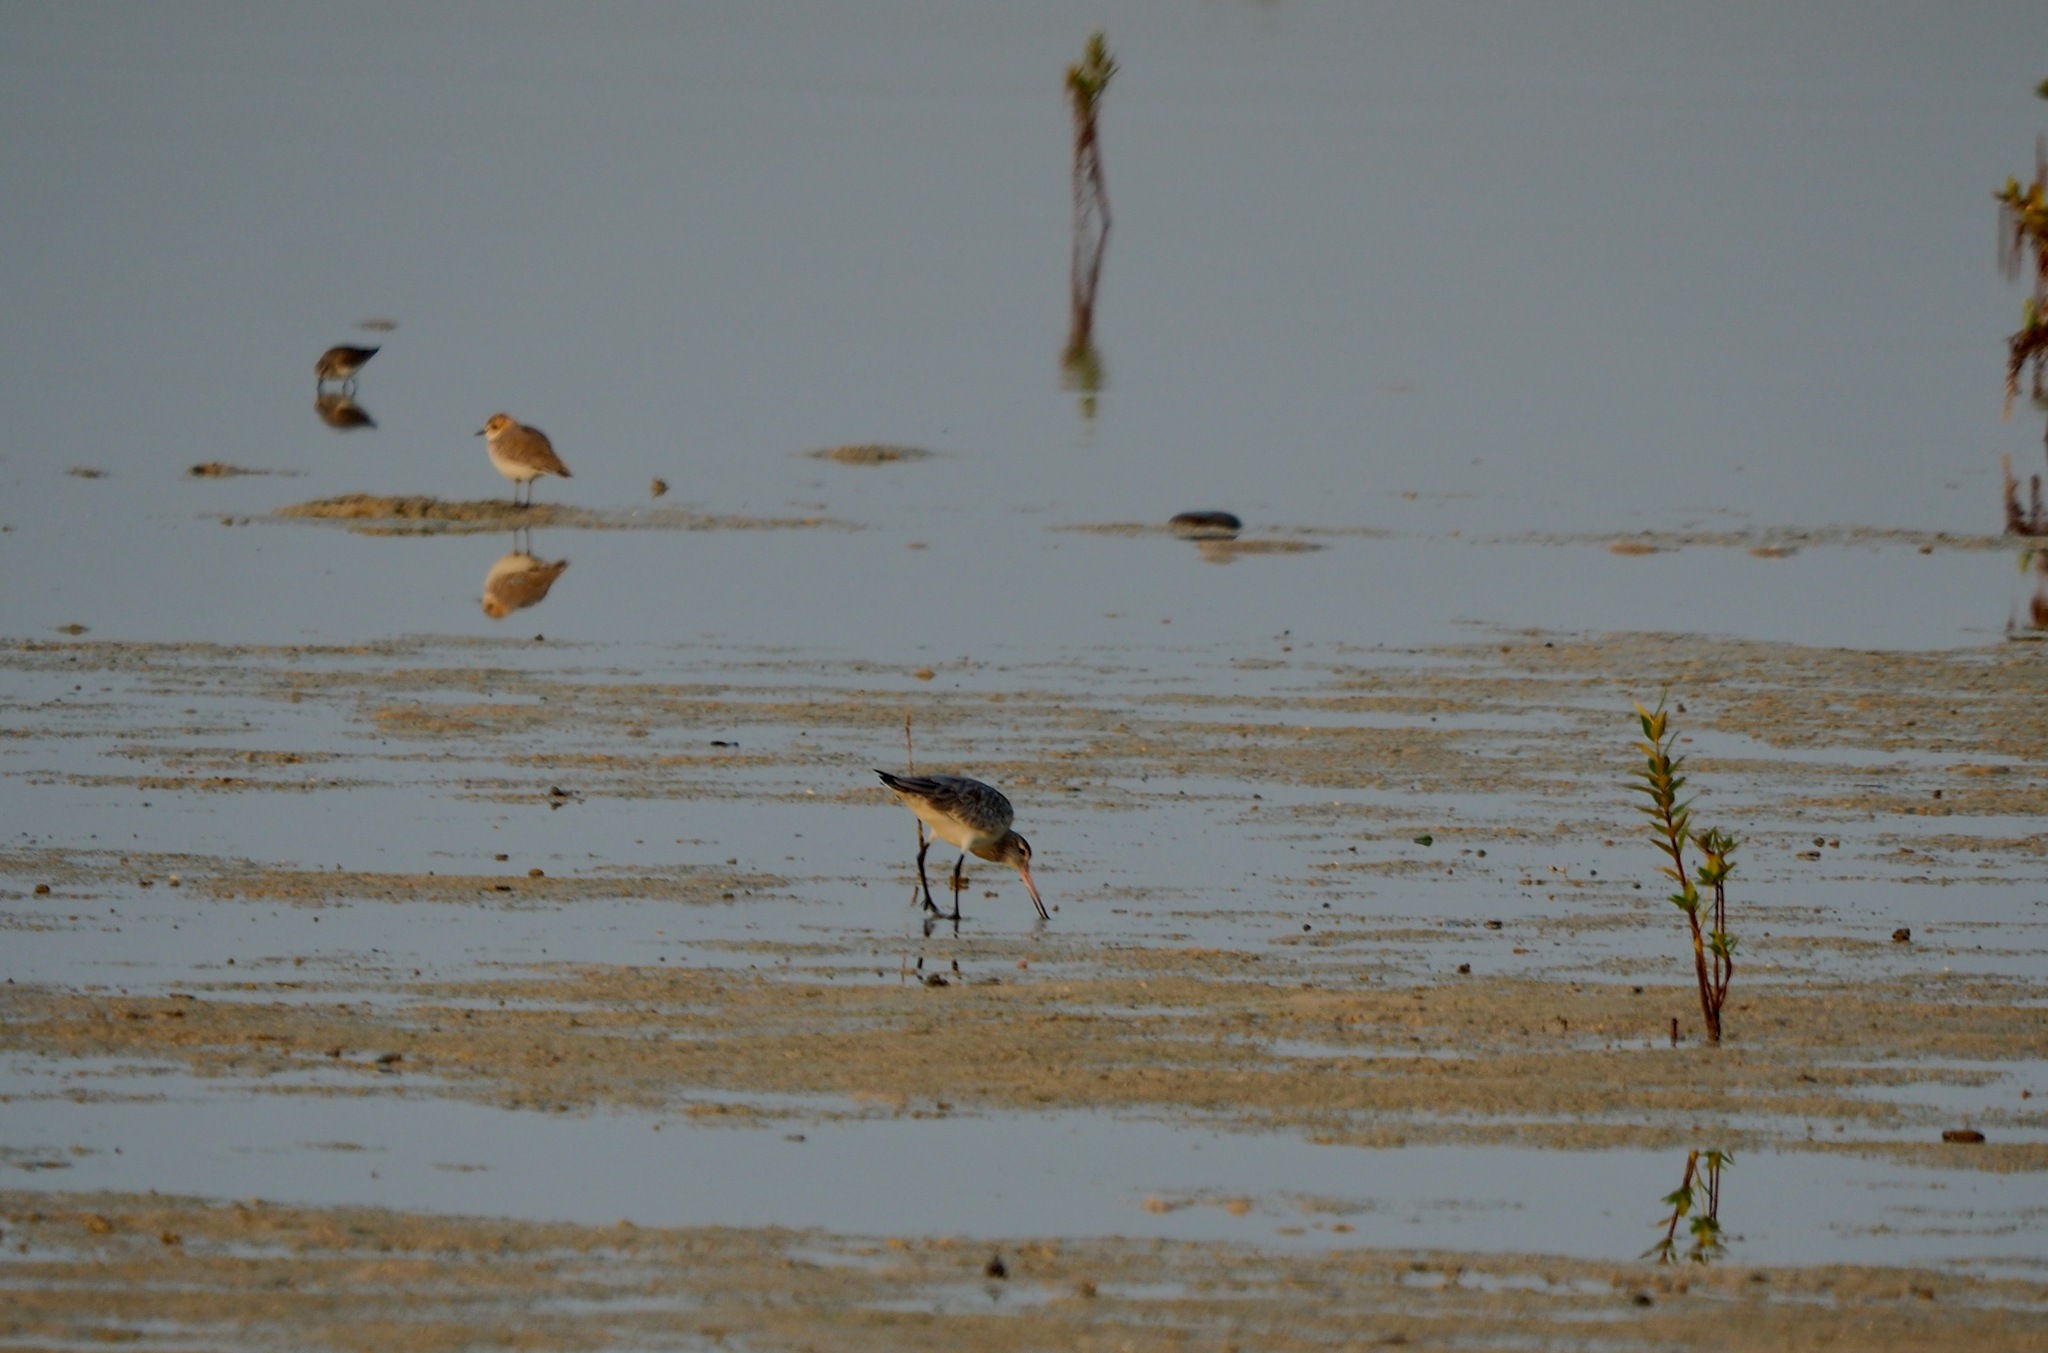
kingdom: Animalia
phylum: Chordata
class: Aves
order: Charadriiformes
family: Scolopacidae
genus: Limosa
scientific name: Limosa lapponica
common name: Bar-tailed godwit
